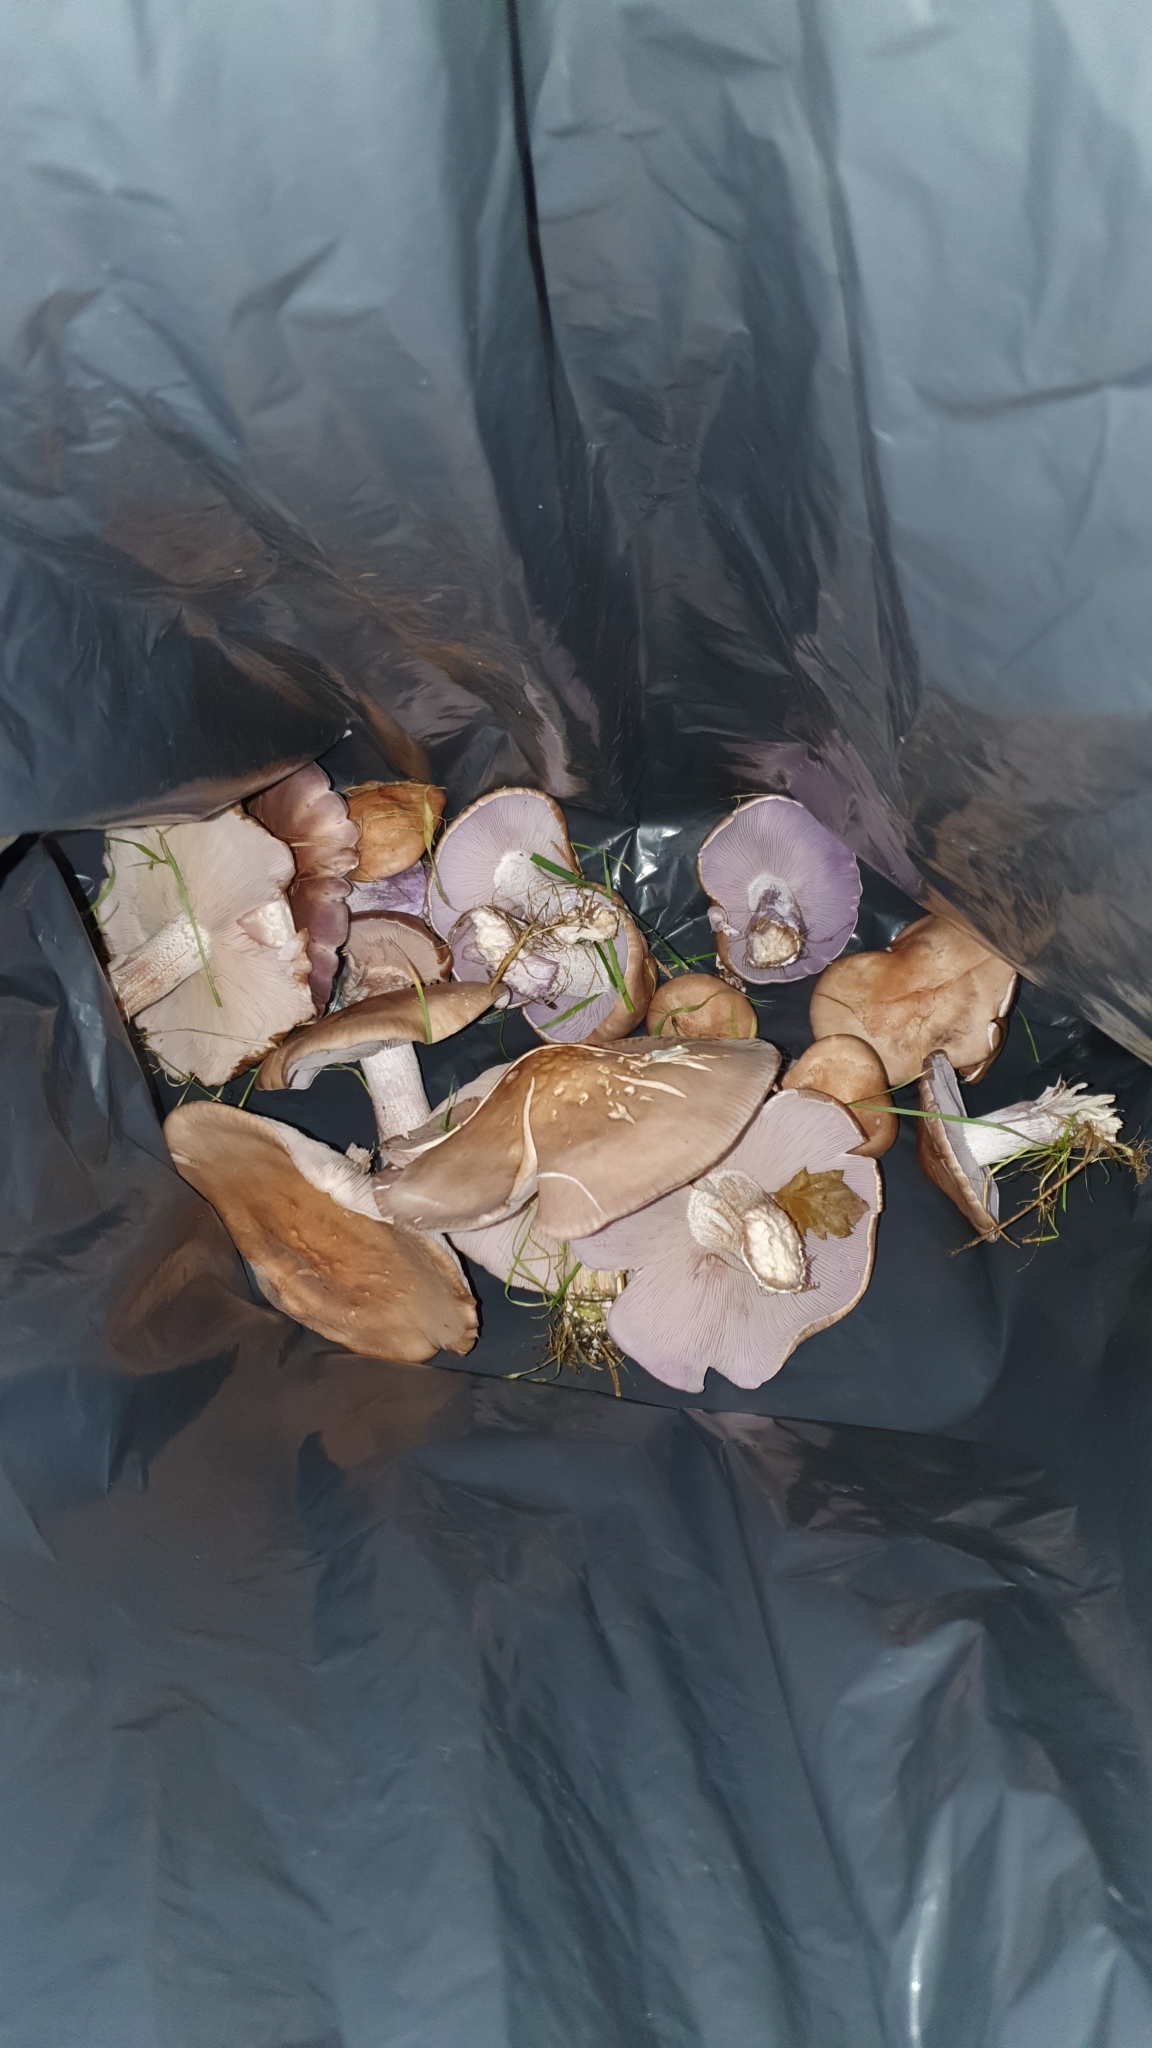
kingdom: Fungi
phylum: Basidiomycota
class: Agaricomycetes
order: Agaricales
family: Tricholomataceae
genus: Collybia
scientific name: Collybia
